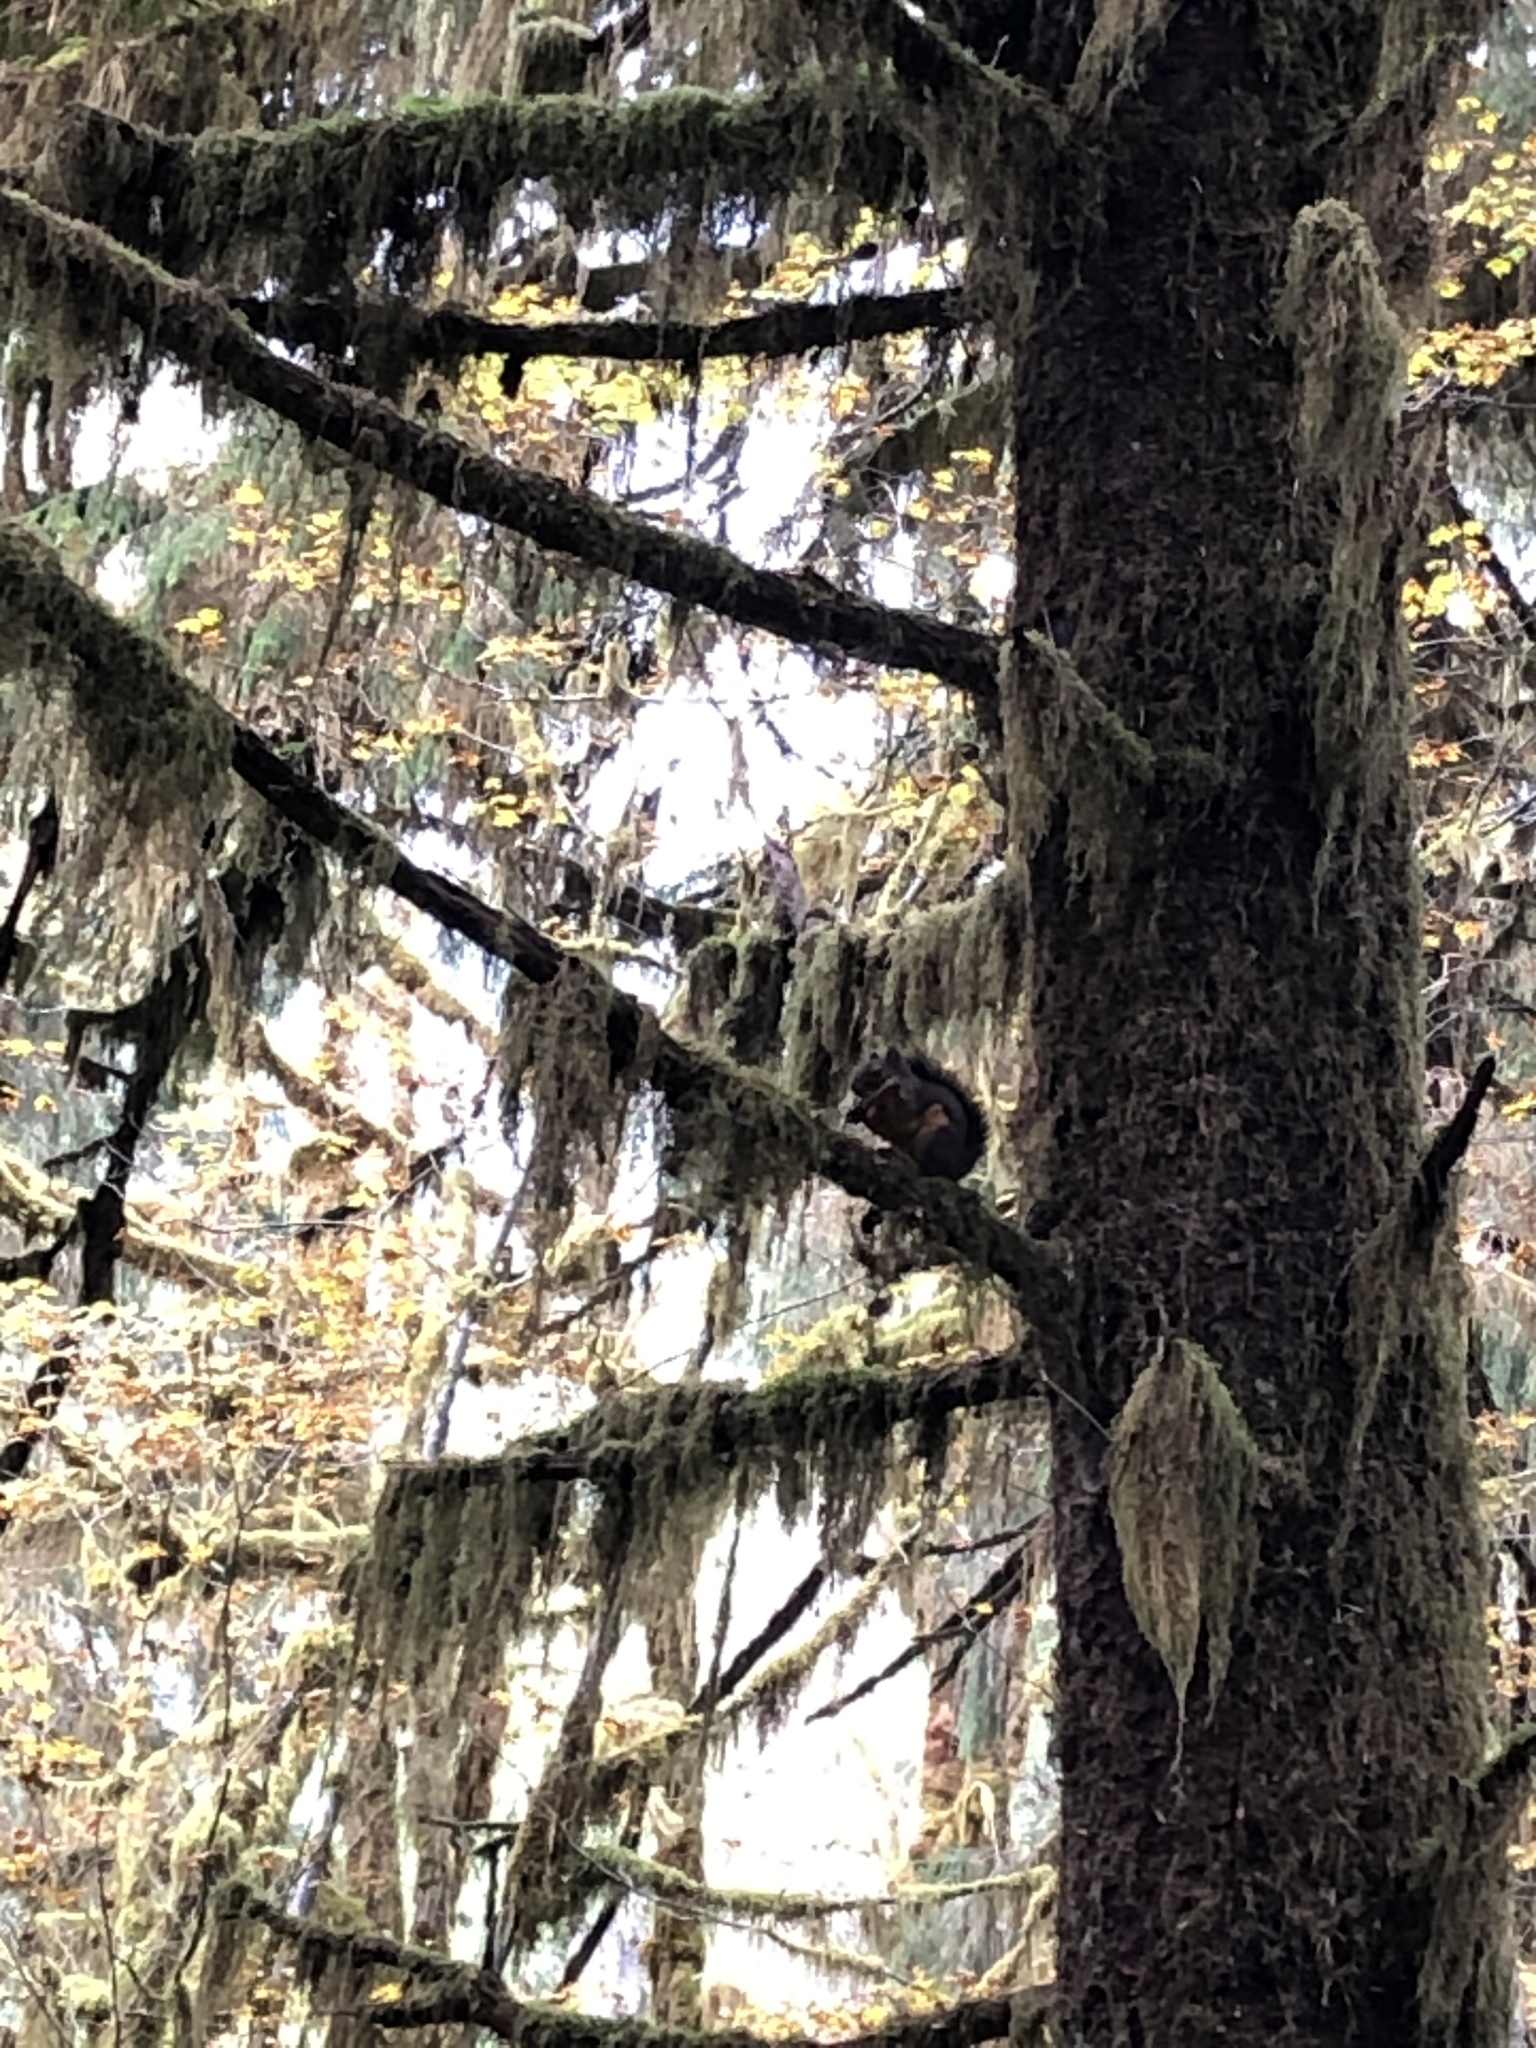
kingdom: Animalia
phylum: Chordata
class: Mammalia
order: Rodentia
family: Sciuridae
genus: Tamiasciurus
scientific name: Tamiasciurus douglasii
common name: Douglas's squirrel
